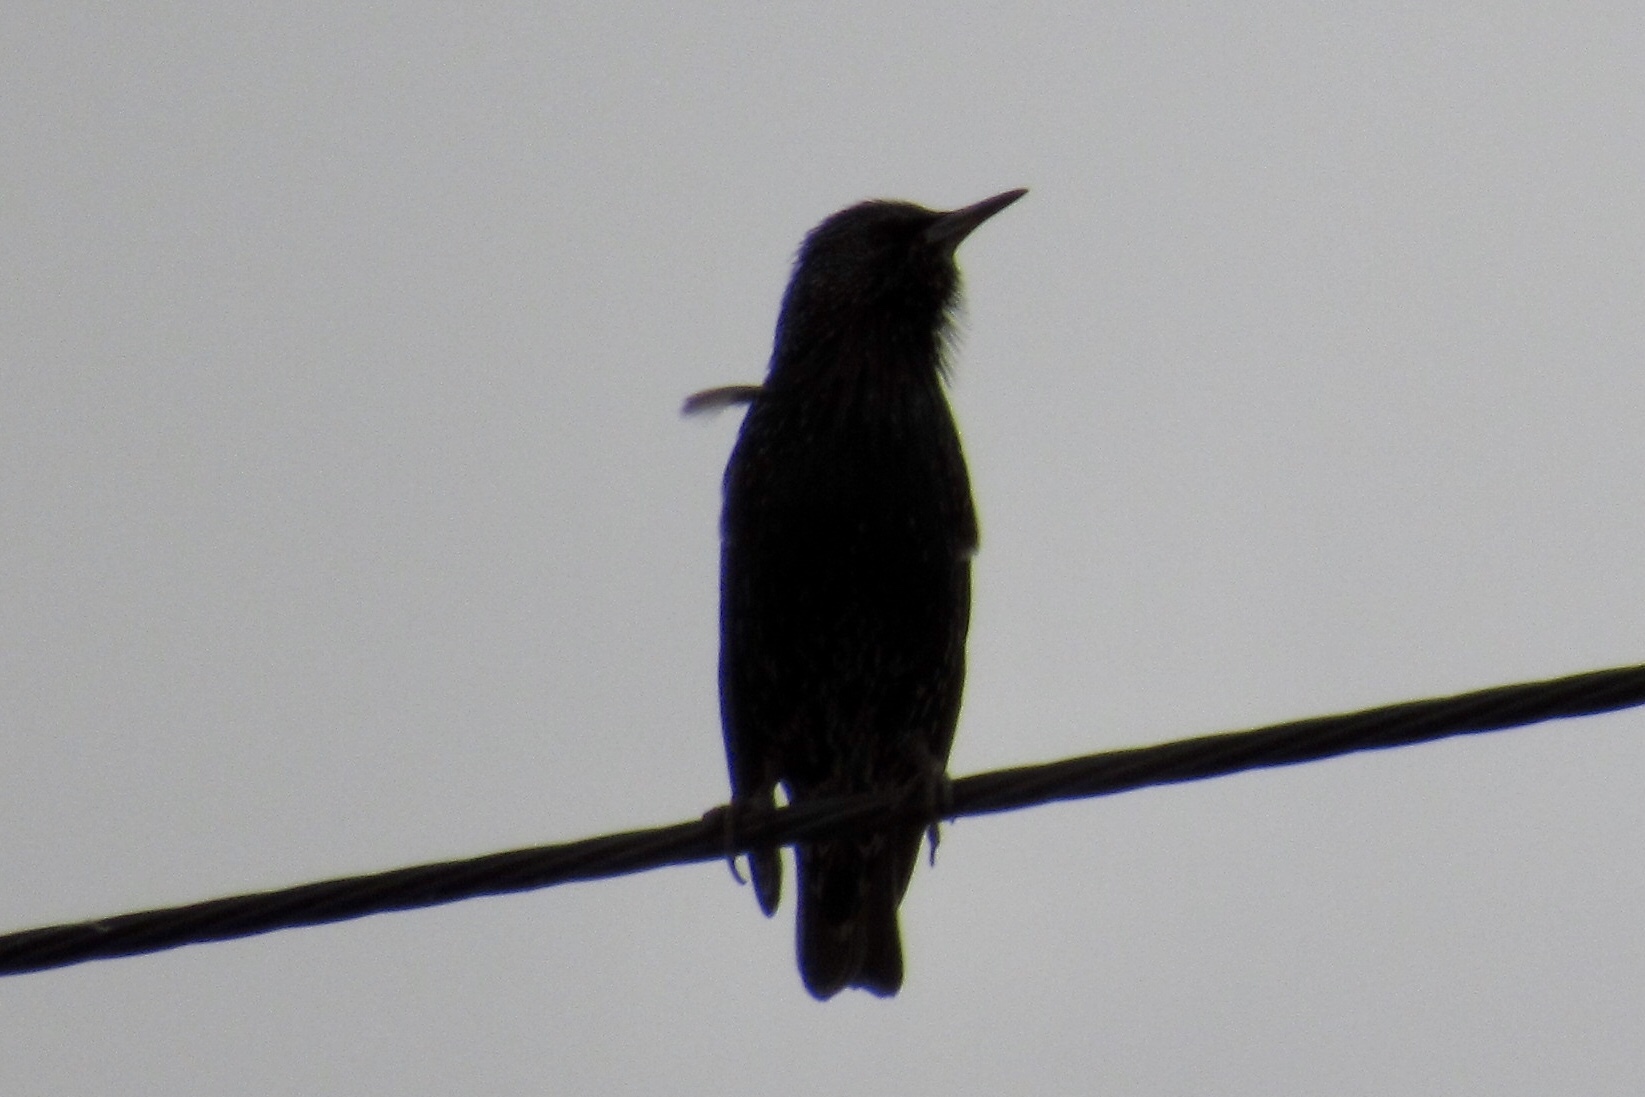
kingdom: Animalia
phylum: Chordata
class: Aves
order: Passeriformes
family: Sturnidae
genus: Sturnus
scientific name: Sturnus vulgaris
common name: Common starling
